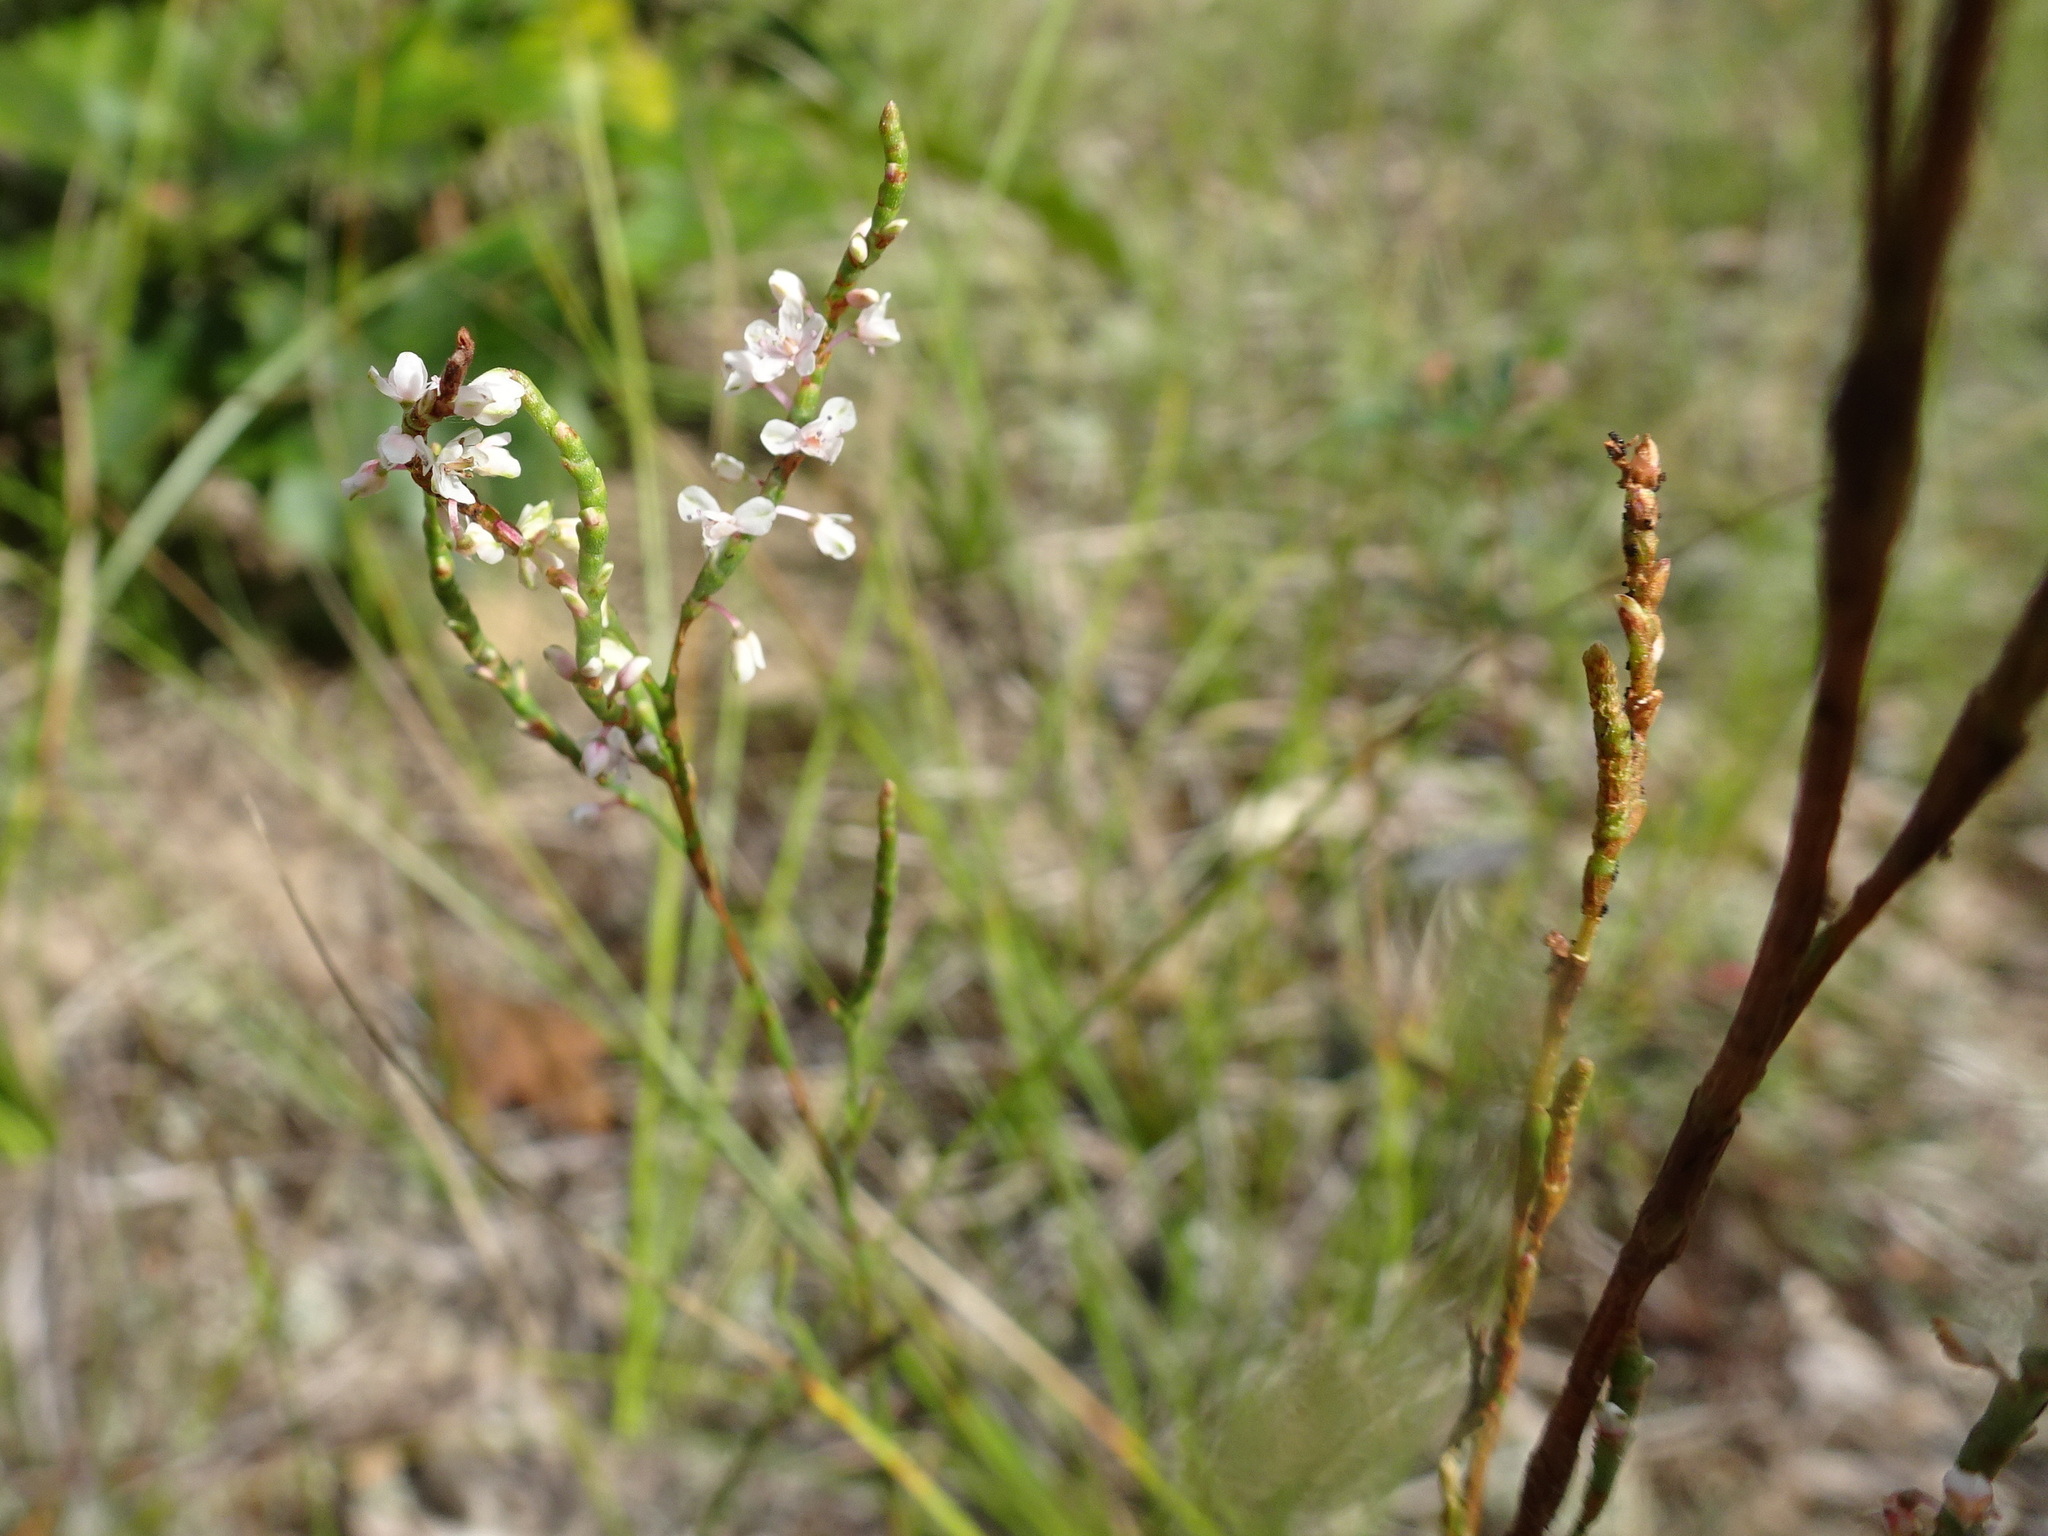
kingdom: Plantae
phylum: Tracheophyta
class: Magnoliopsida
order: Caryophyllales
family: Polygonaceae
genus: Polygonella
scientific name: Polygonella articulata
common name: Coastal jointweed
